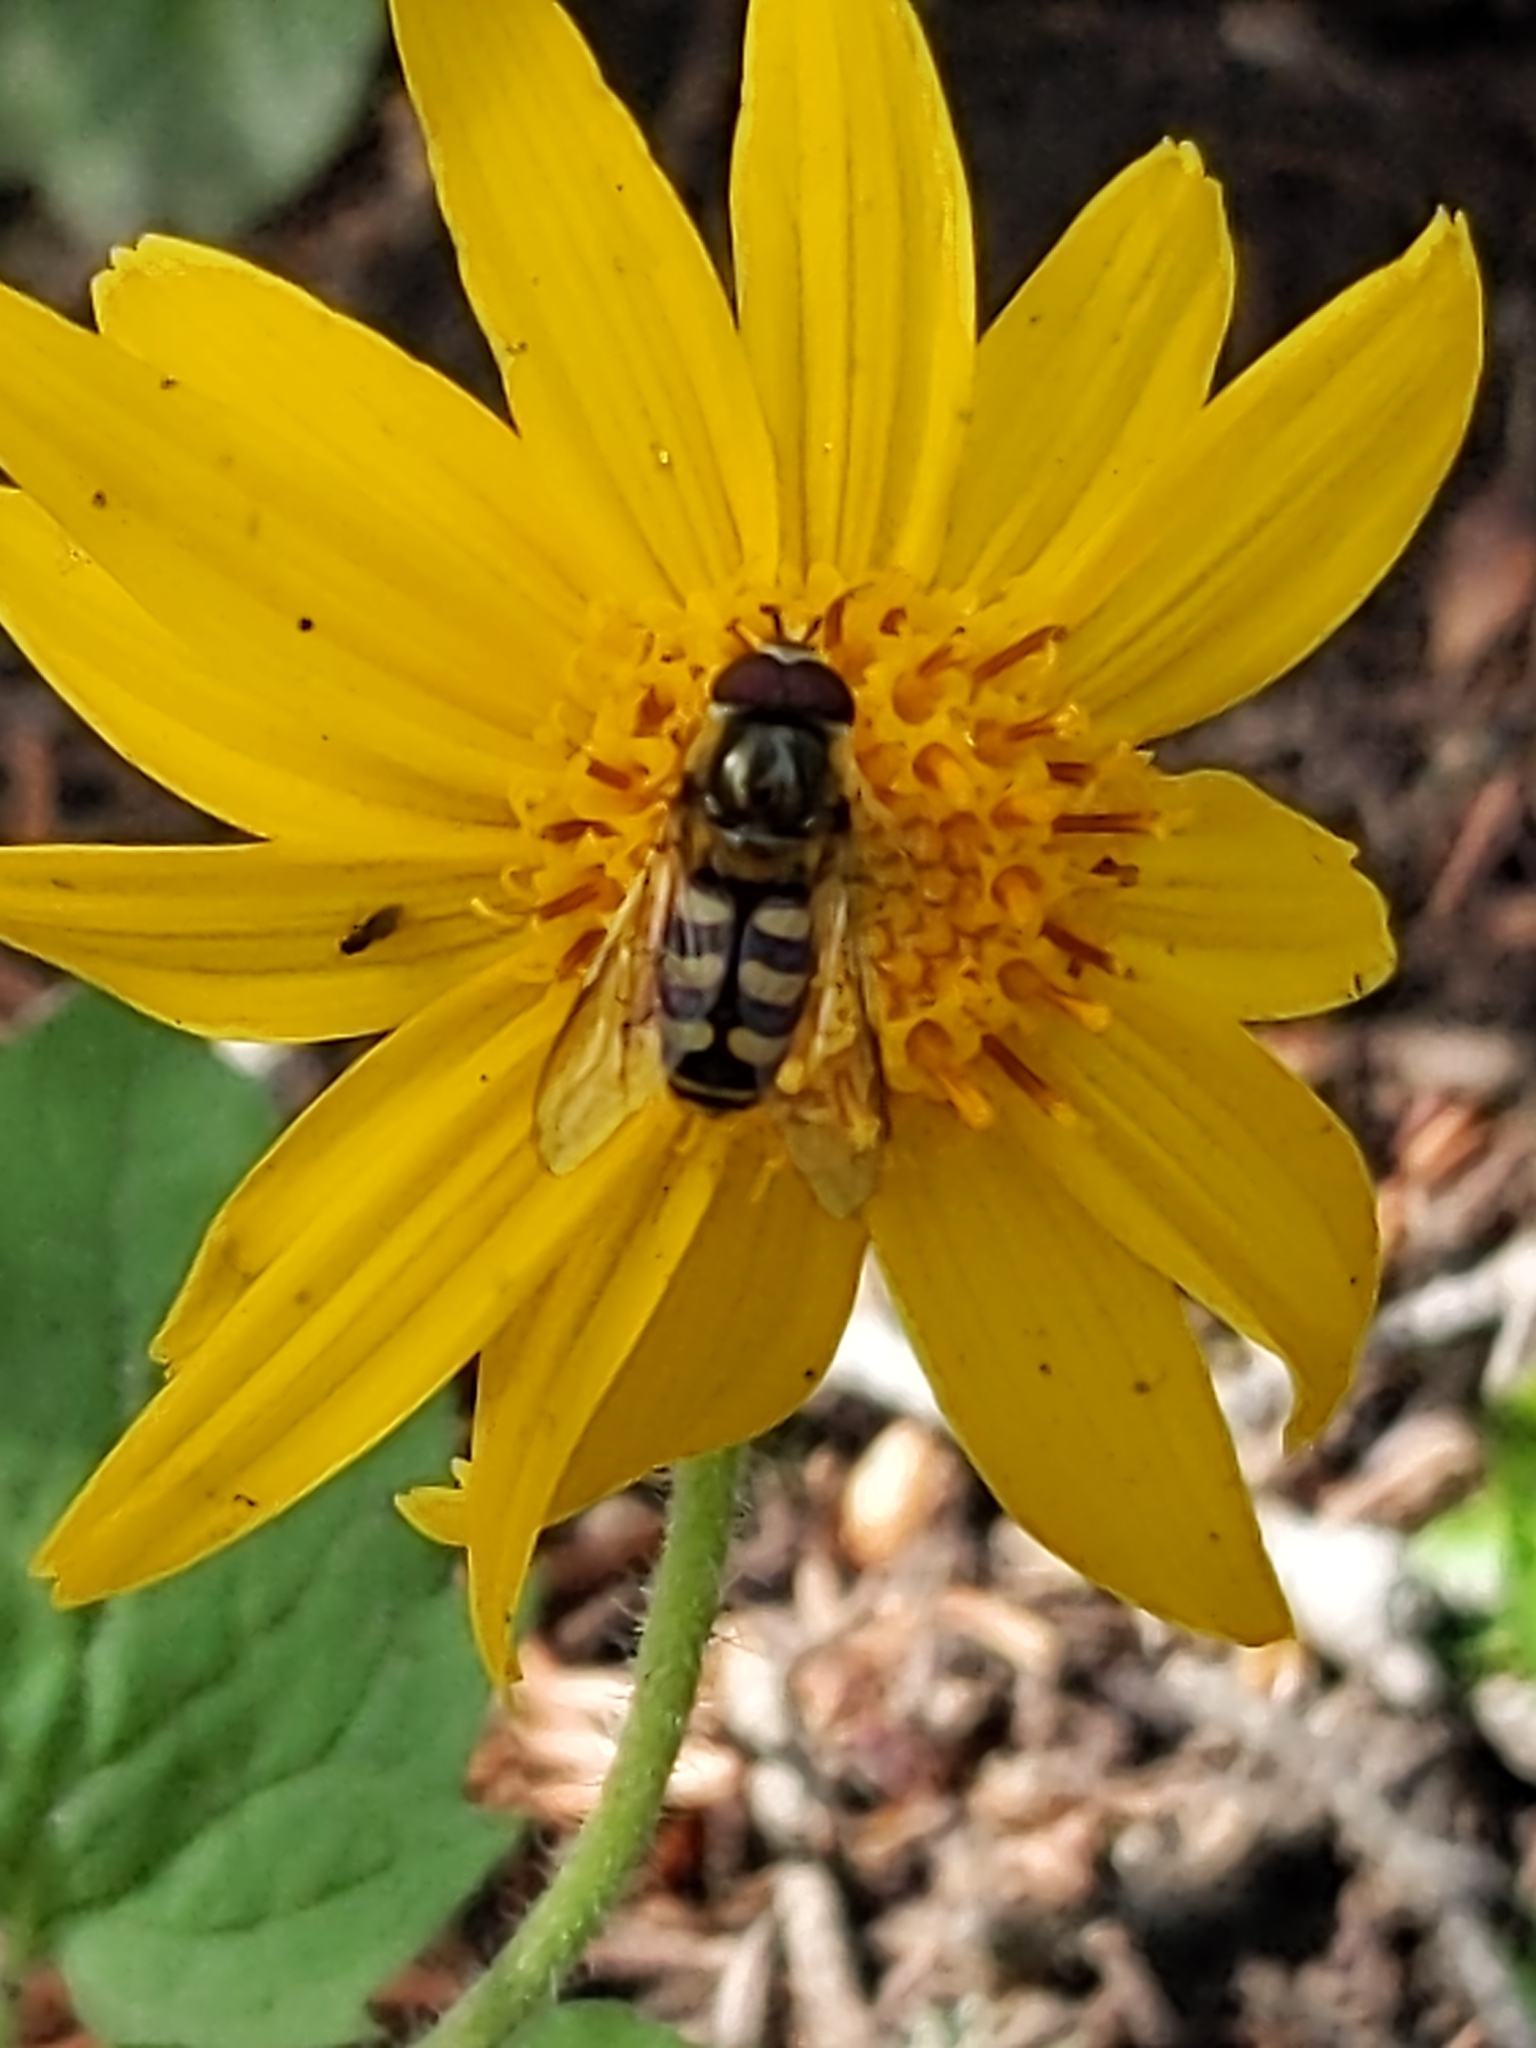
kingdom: Animalia
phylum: Arthropoda
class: Insecta
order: Diptera
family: Syrphidae
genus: Lapposyrphus
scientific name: Lapposyrphus lapponicus
